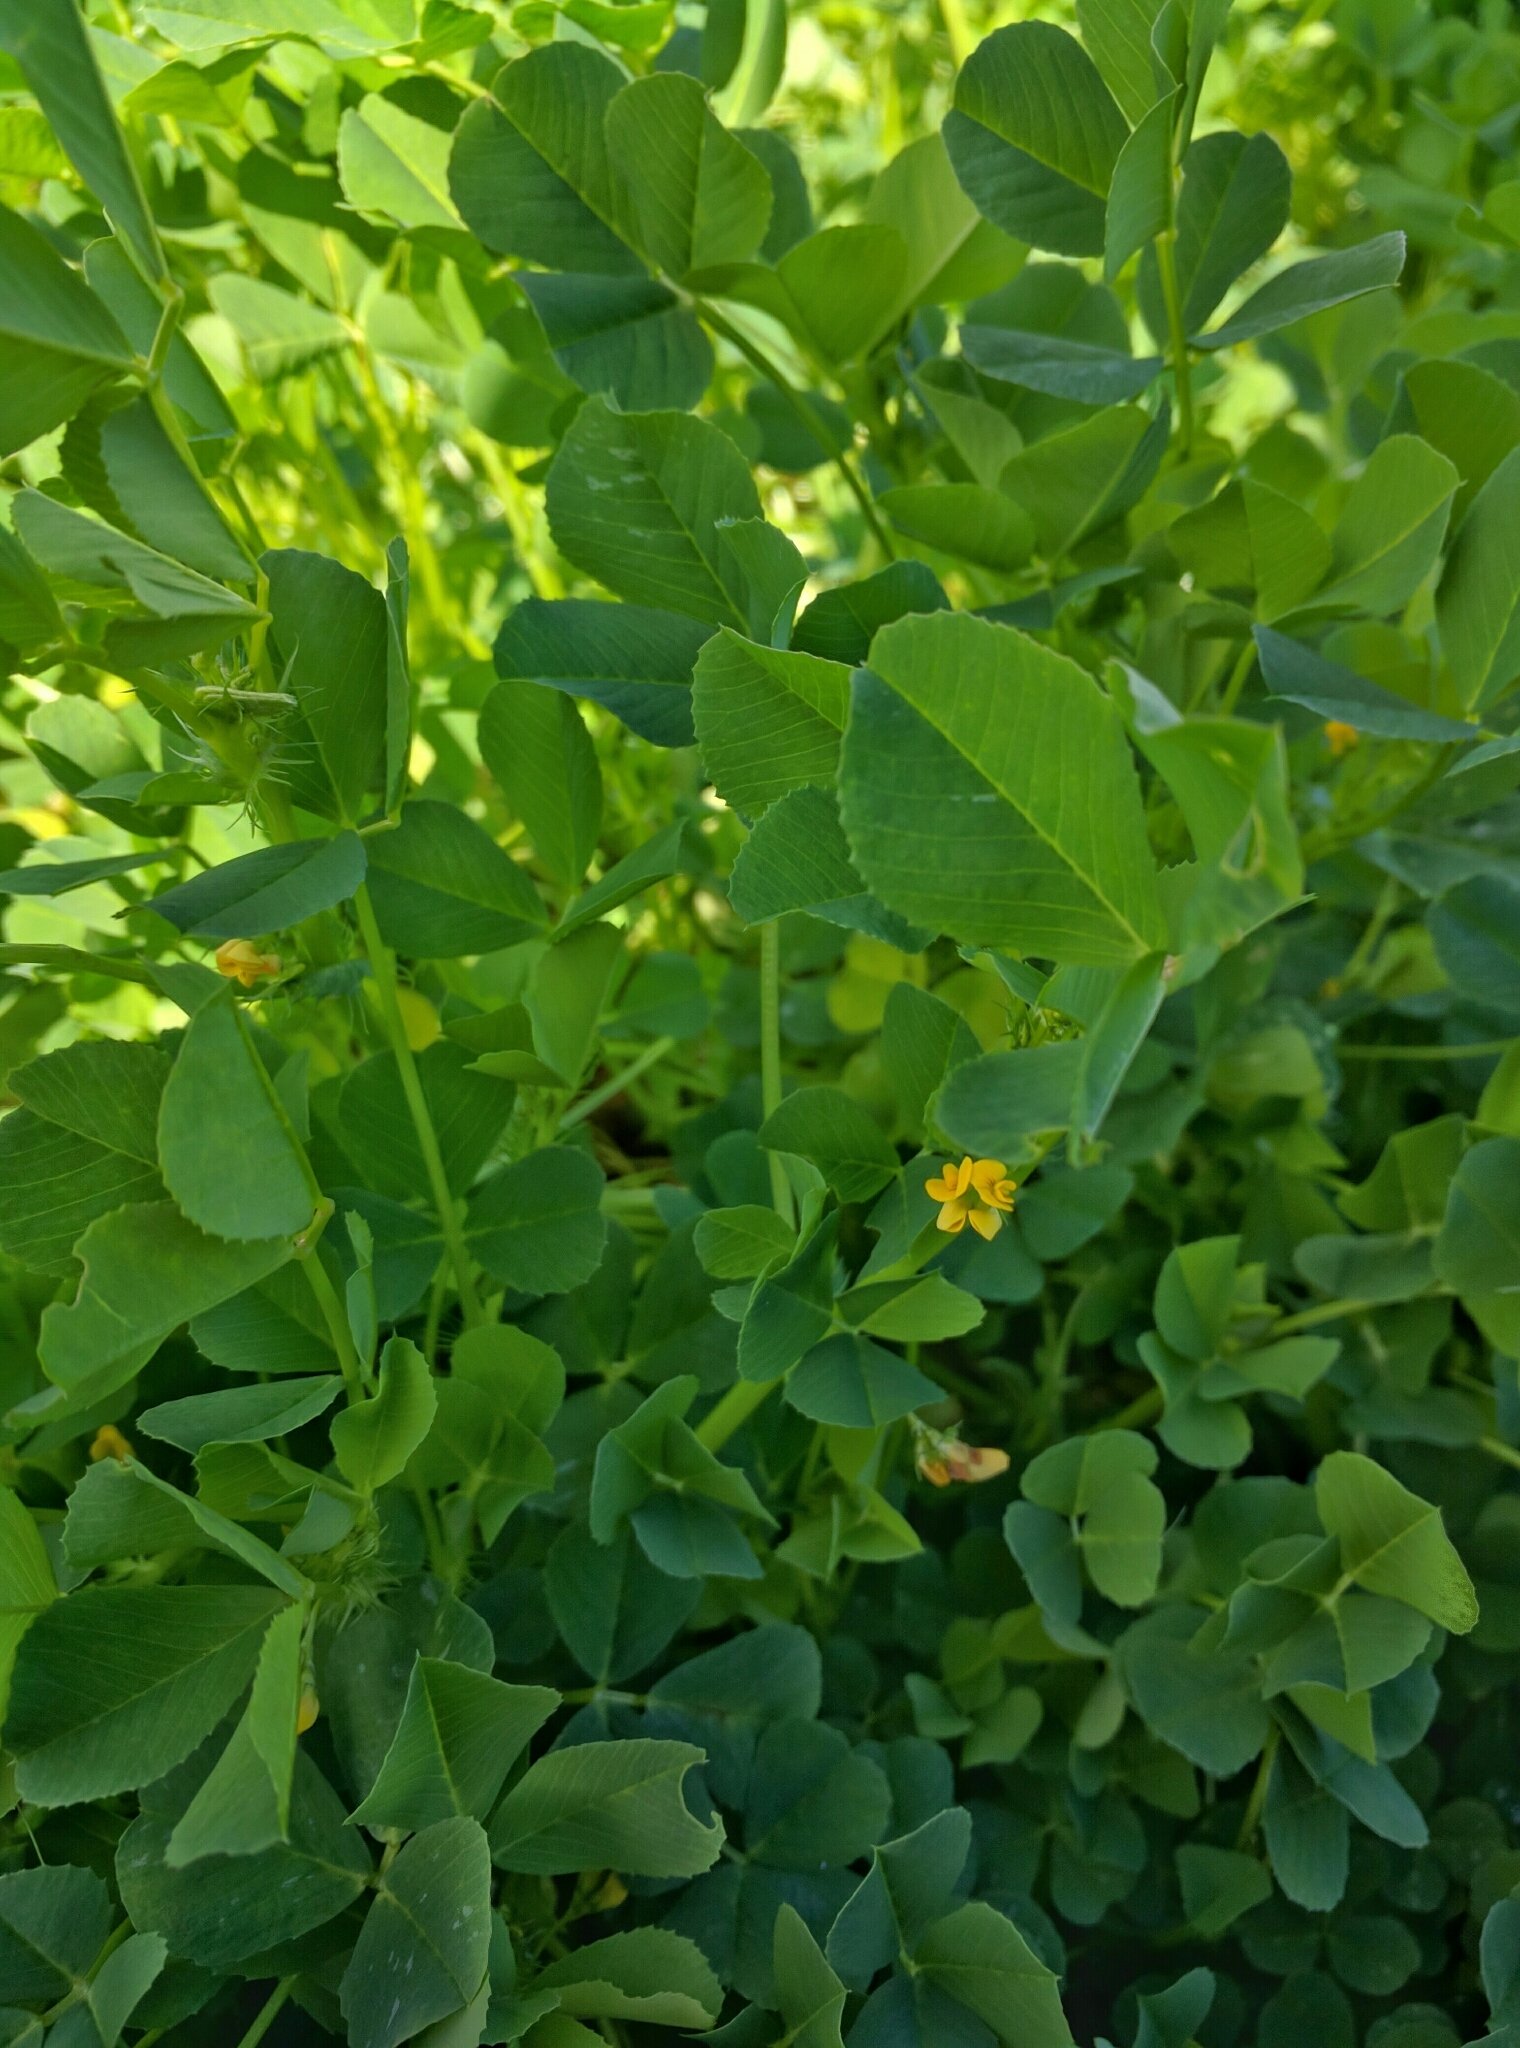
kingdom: Plantae
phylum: Tracheophyta
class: Magnoliopsida
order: Fabales
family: Fabaceae
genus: Medicago
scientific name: Medicago polymorpha
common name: Burclover
